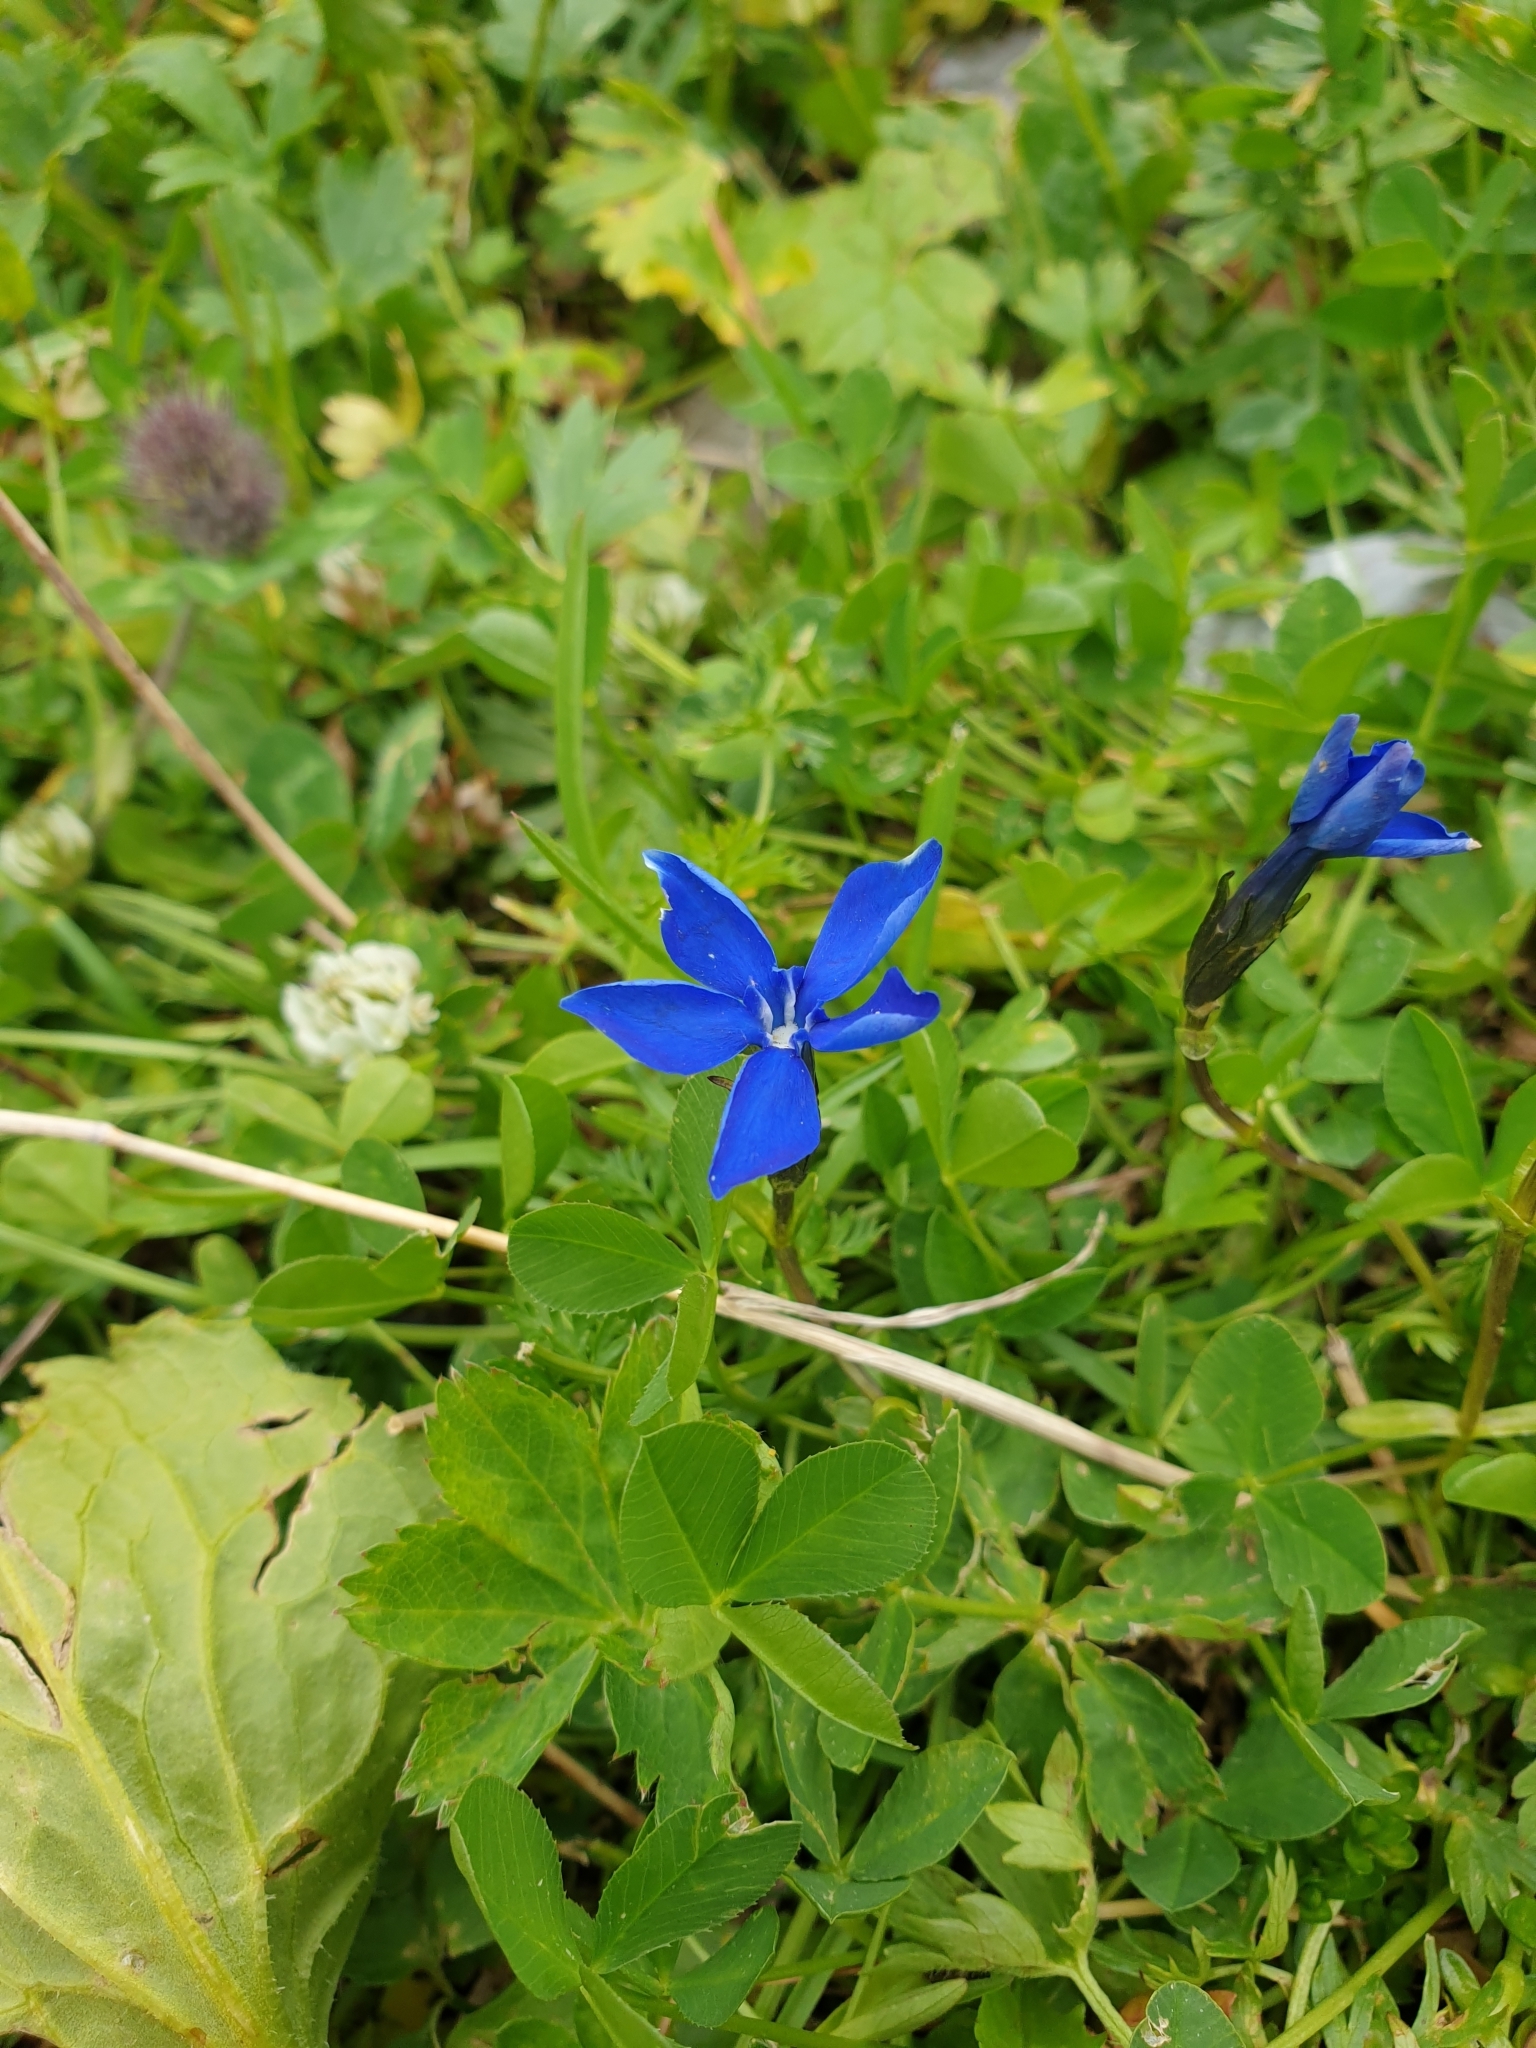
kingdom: Plantae
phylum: Tracheophyta
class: Magnoliopsida
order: Gentianales
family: Gentianaceae
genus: Gentiana
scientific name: Gentiana bavarica
